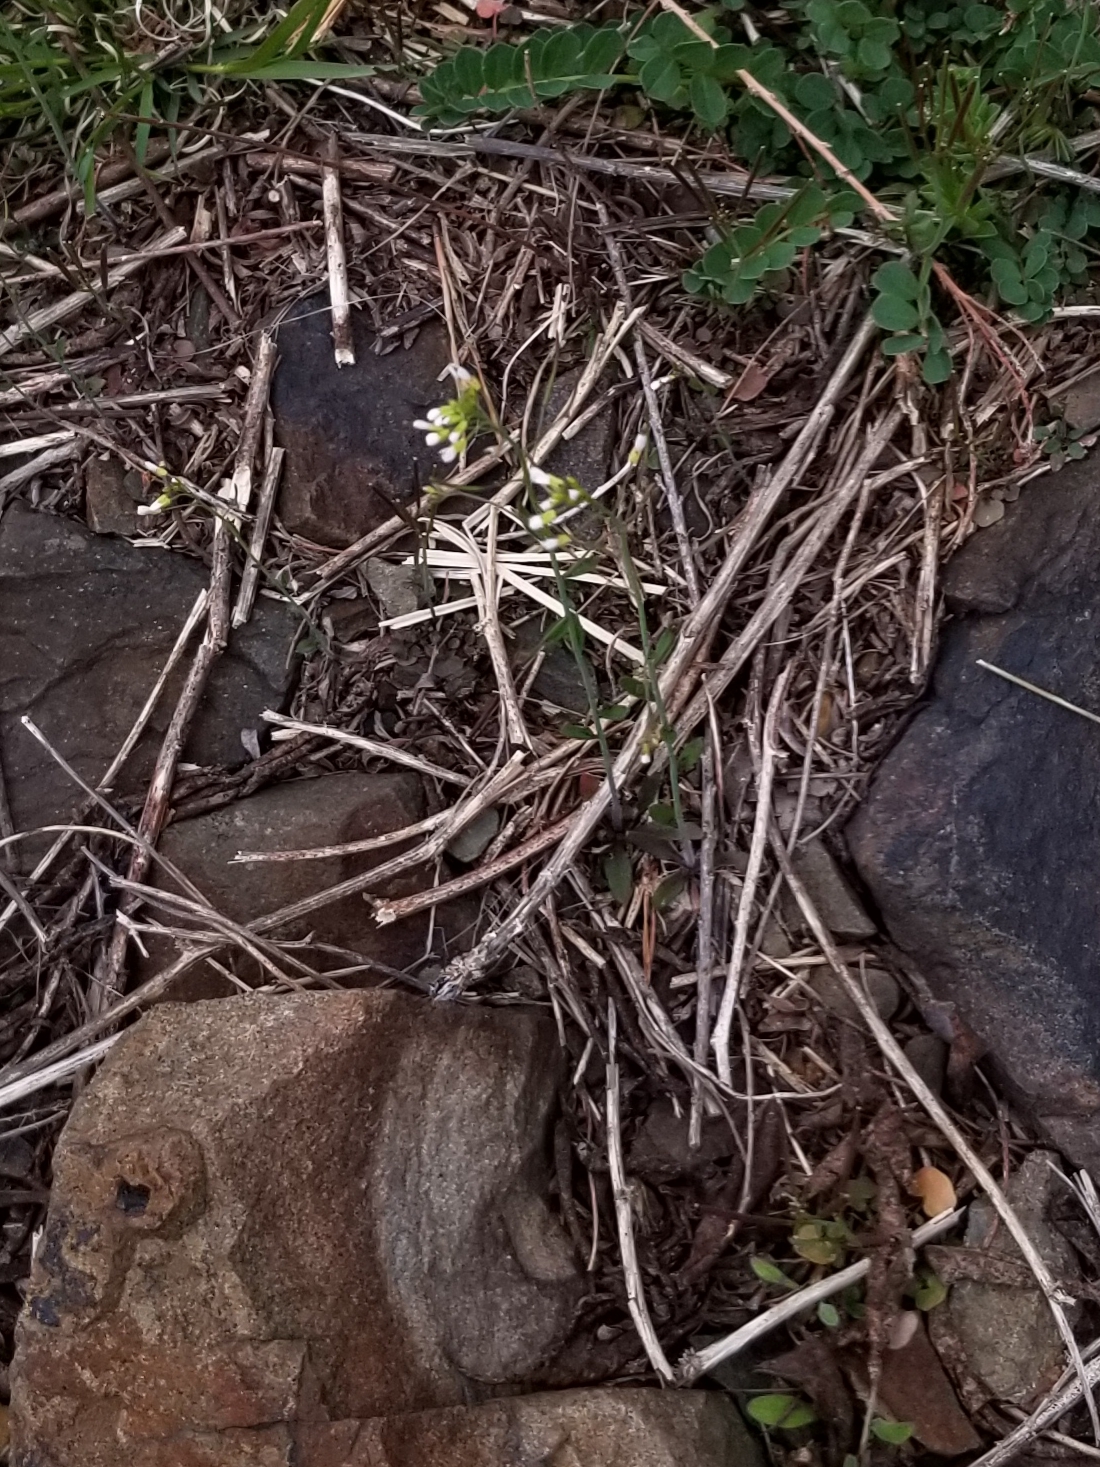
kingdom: Plantae
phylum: Tracheophyta
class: Magnoliopsida
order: Brassicales
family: Brassicaceae
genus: Arabidopsis
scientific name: Arabidopsis thaliana
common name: Thale cress
